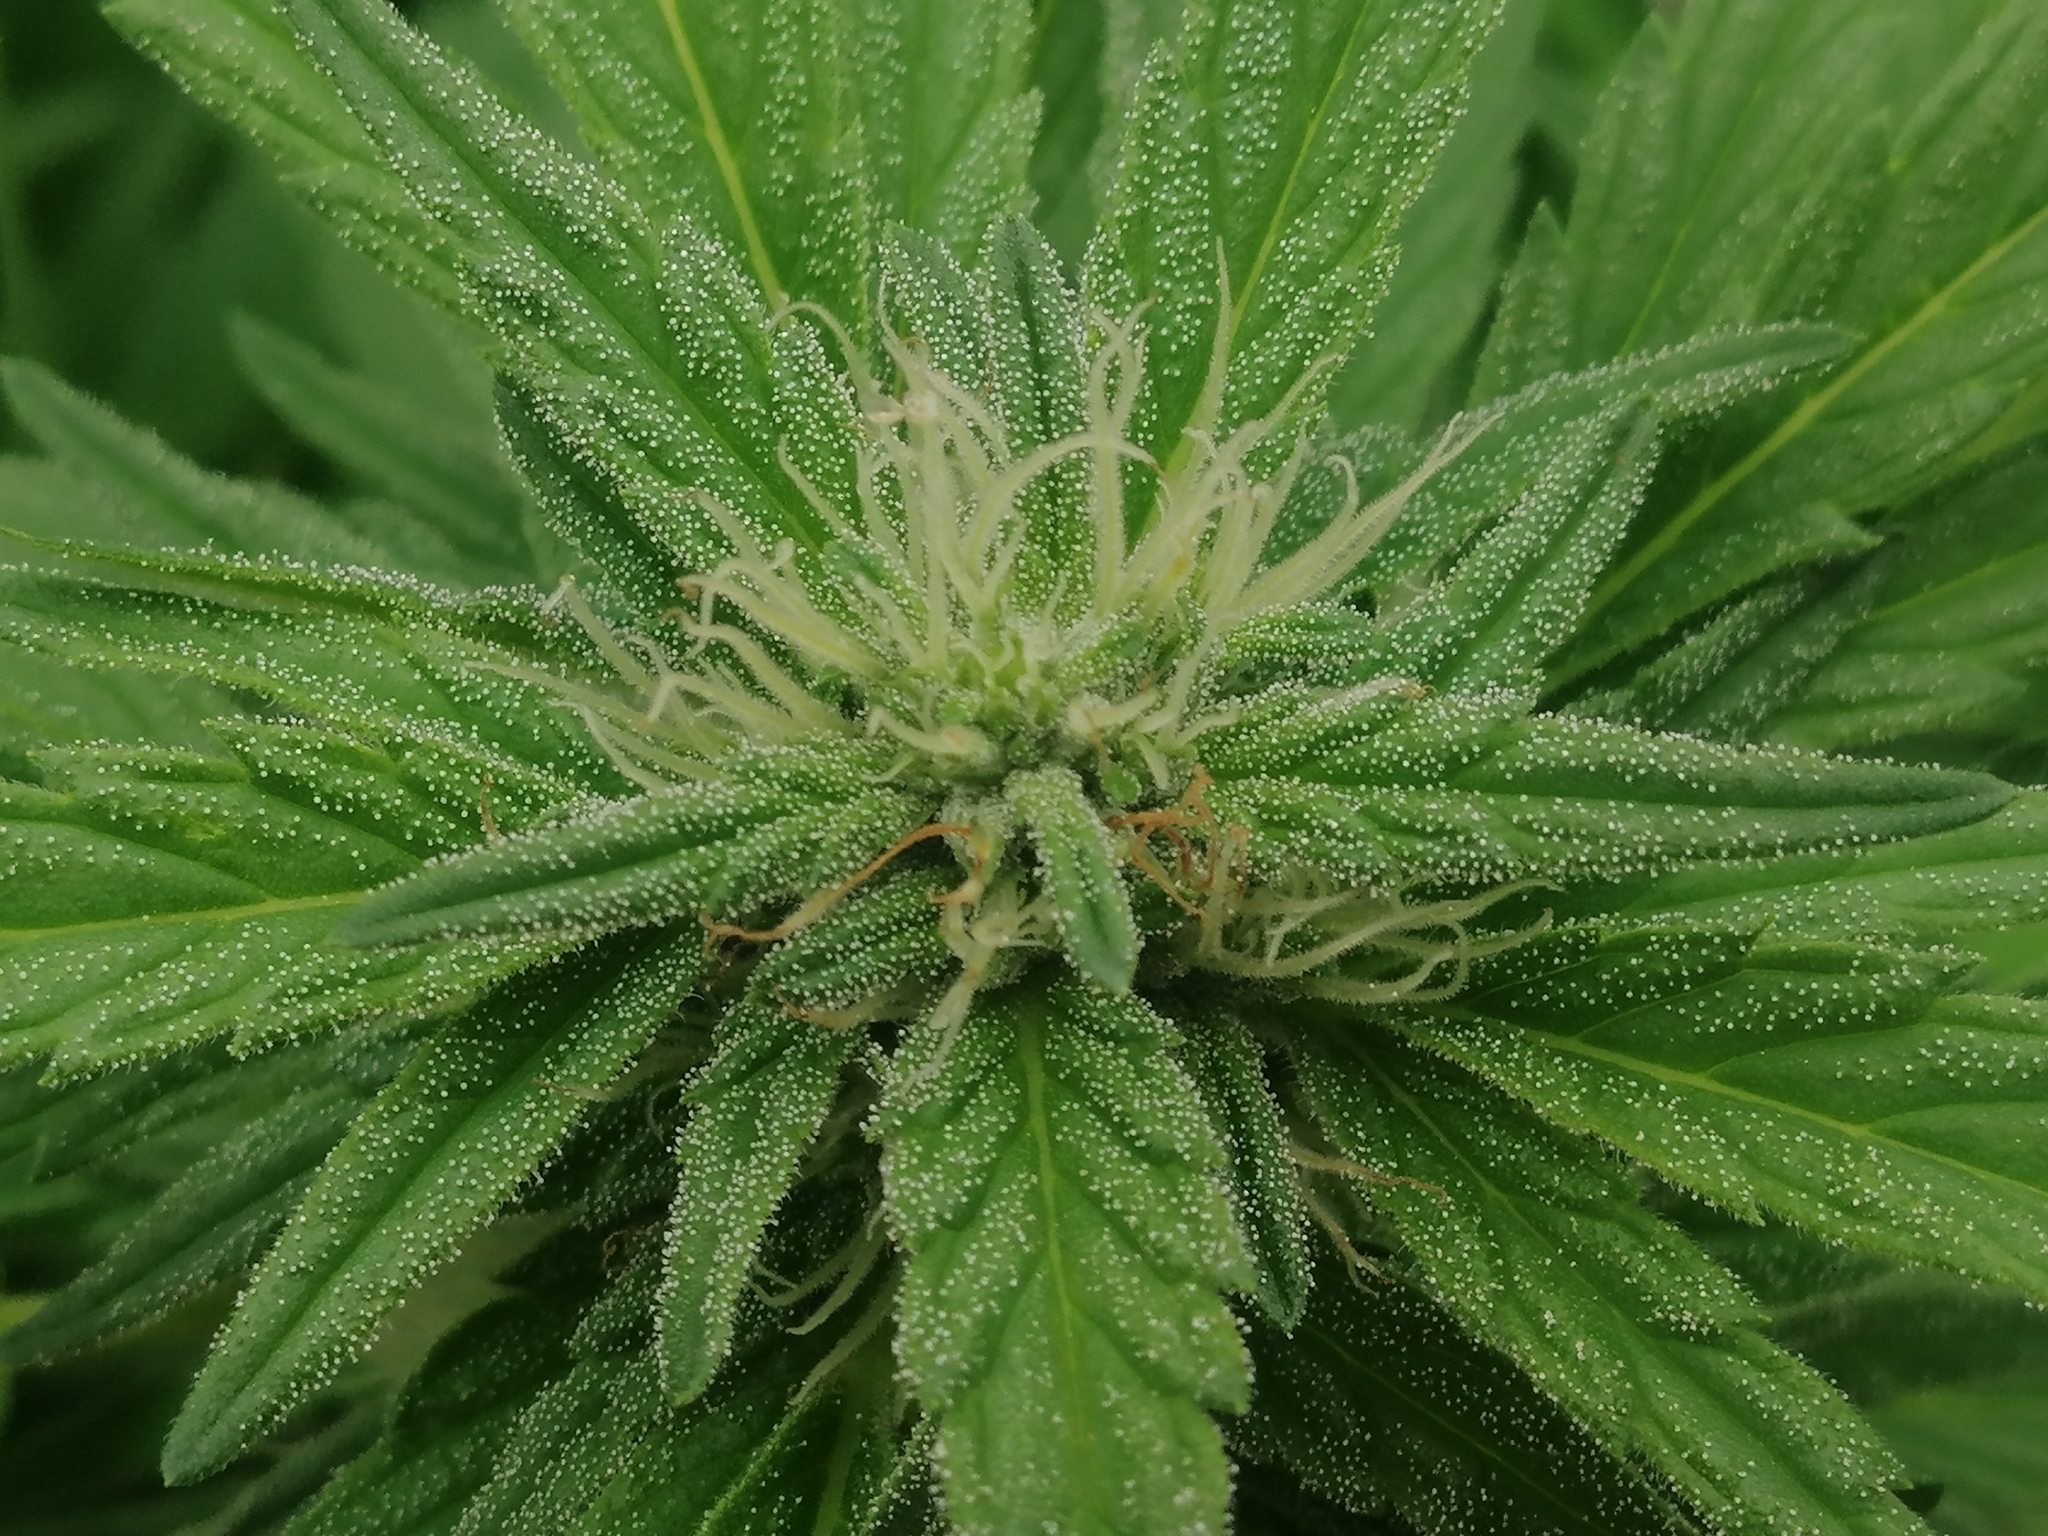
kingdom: Plantae
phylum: Tracheophyta
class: Magnoliopsida
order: Rosales
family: Cannabaceae
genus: Cannabis
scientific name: Cannabis sativa
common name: Hemp
